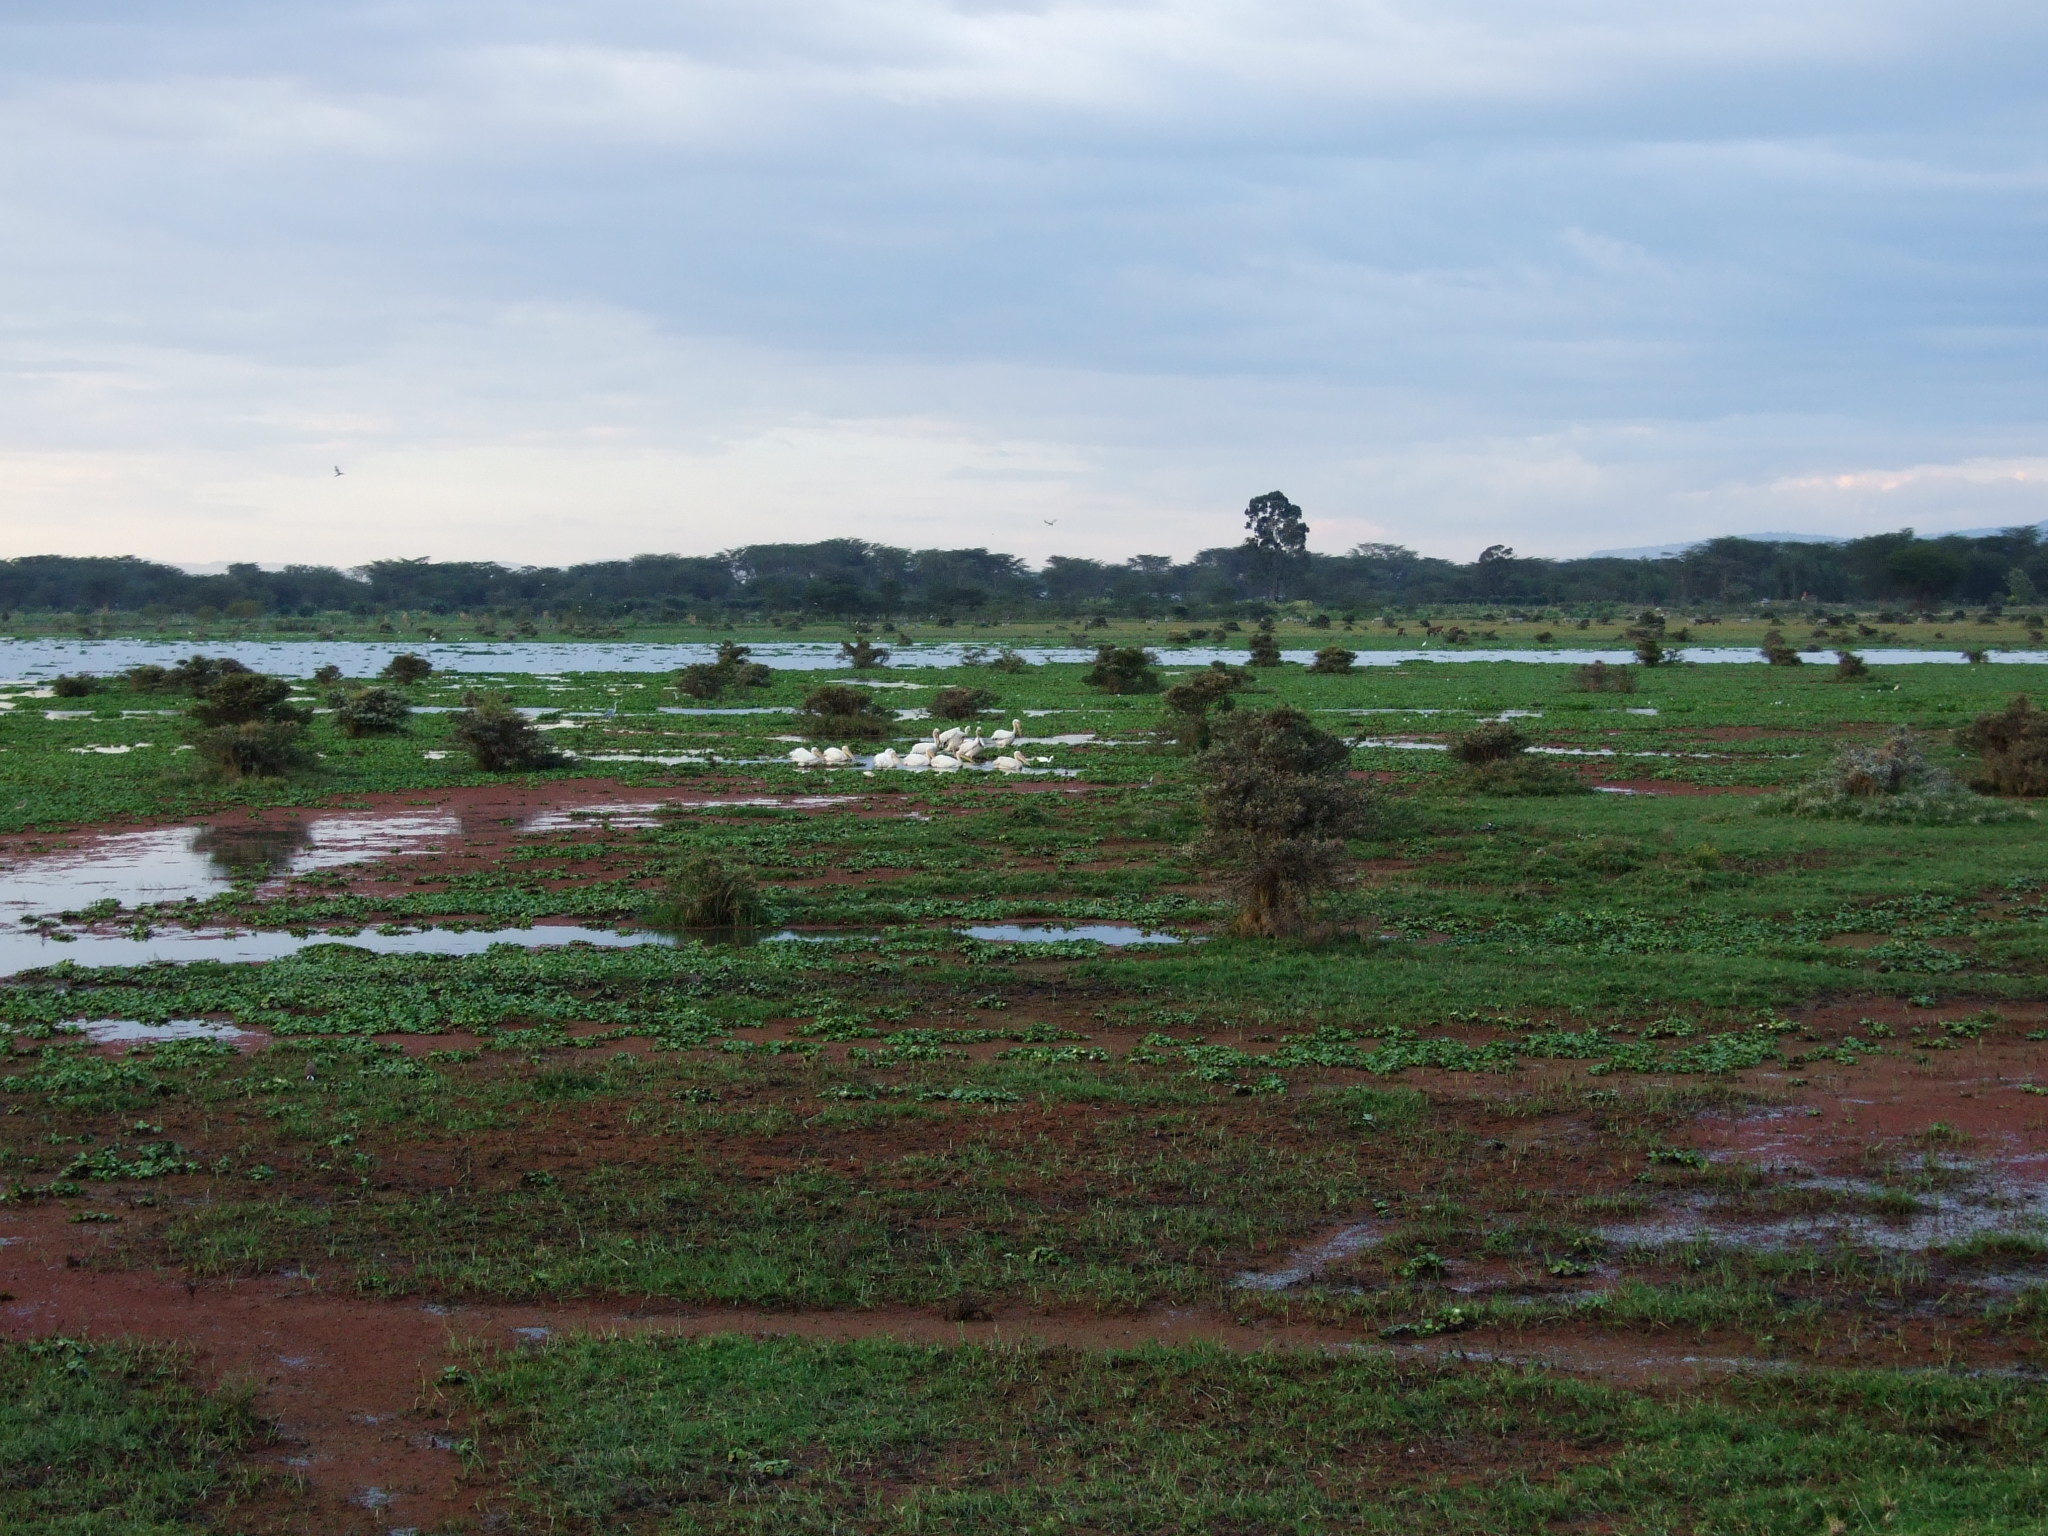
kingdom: Animalia
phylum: Chordata
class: Aves
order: Pelecaniformes
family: Pelecanidae
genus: Pelecanus
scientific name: Pelecanus onocrotalus
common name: Great white pelican
